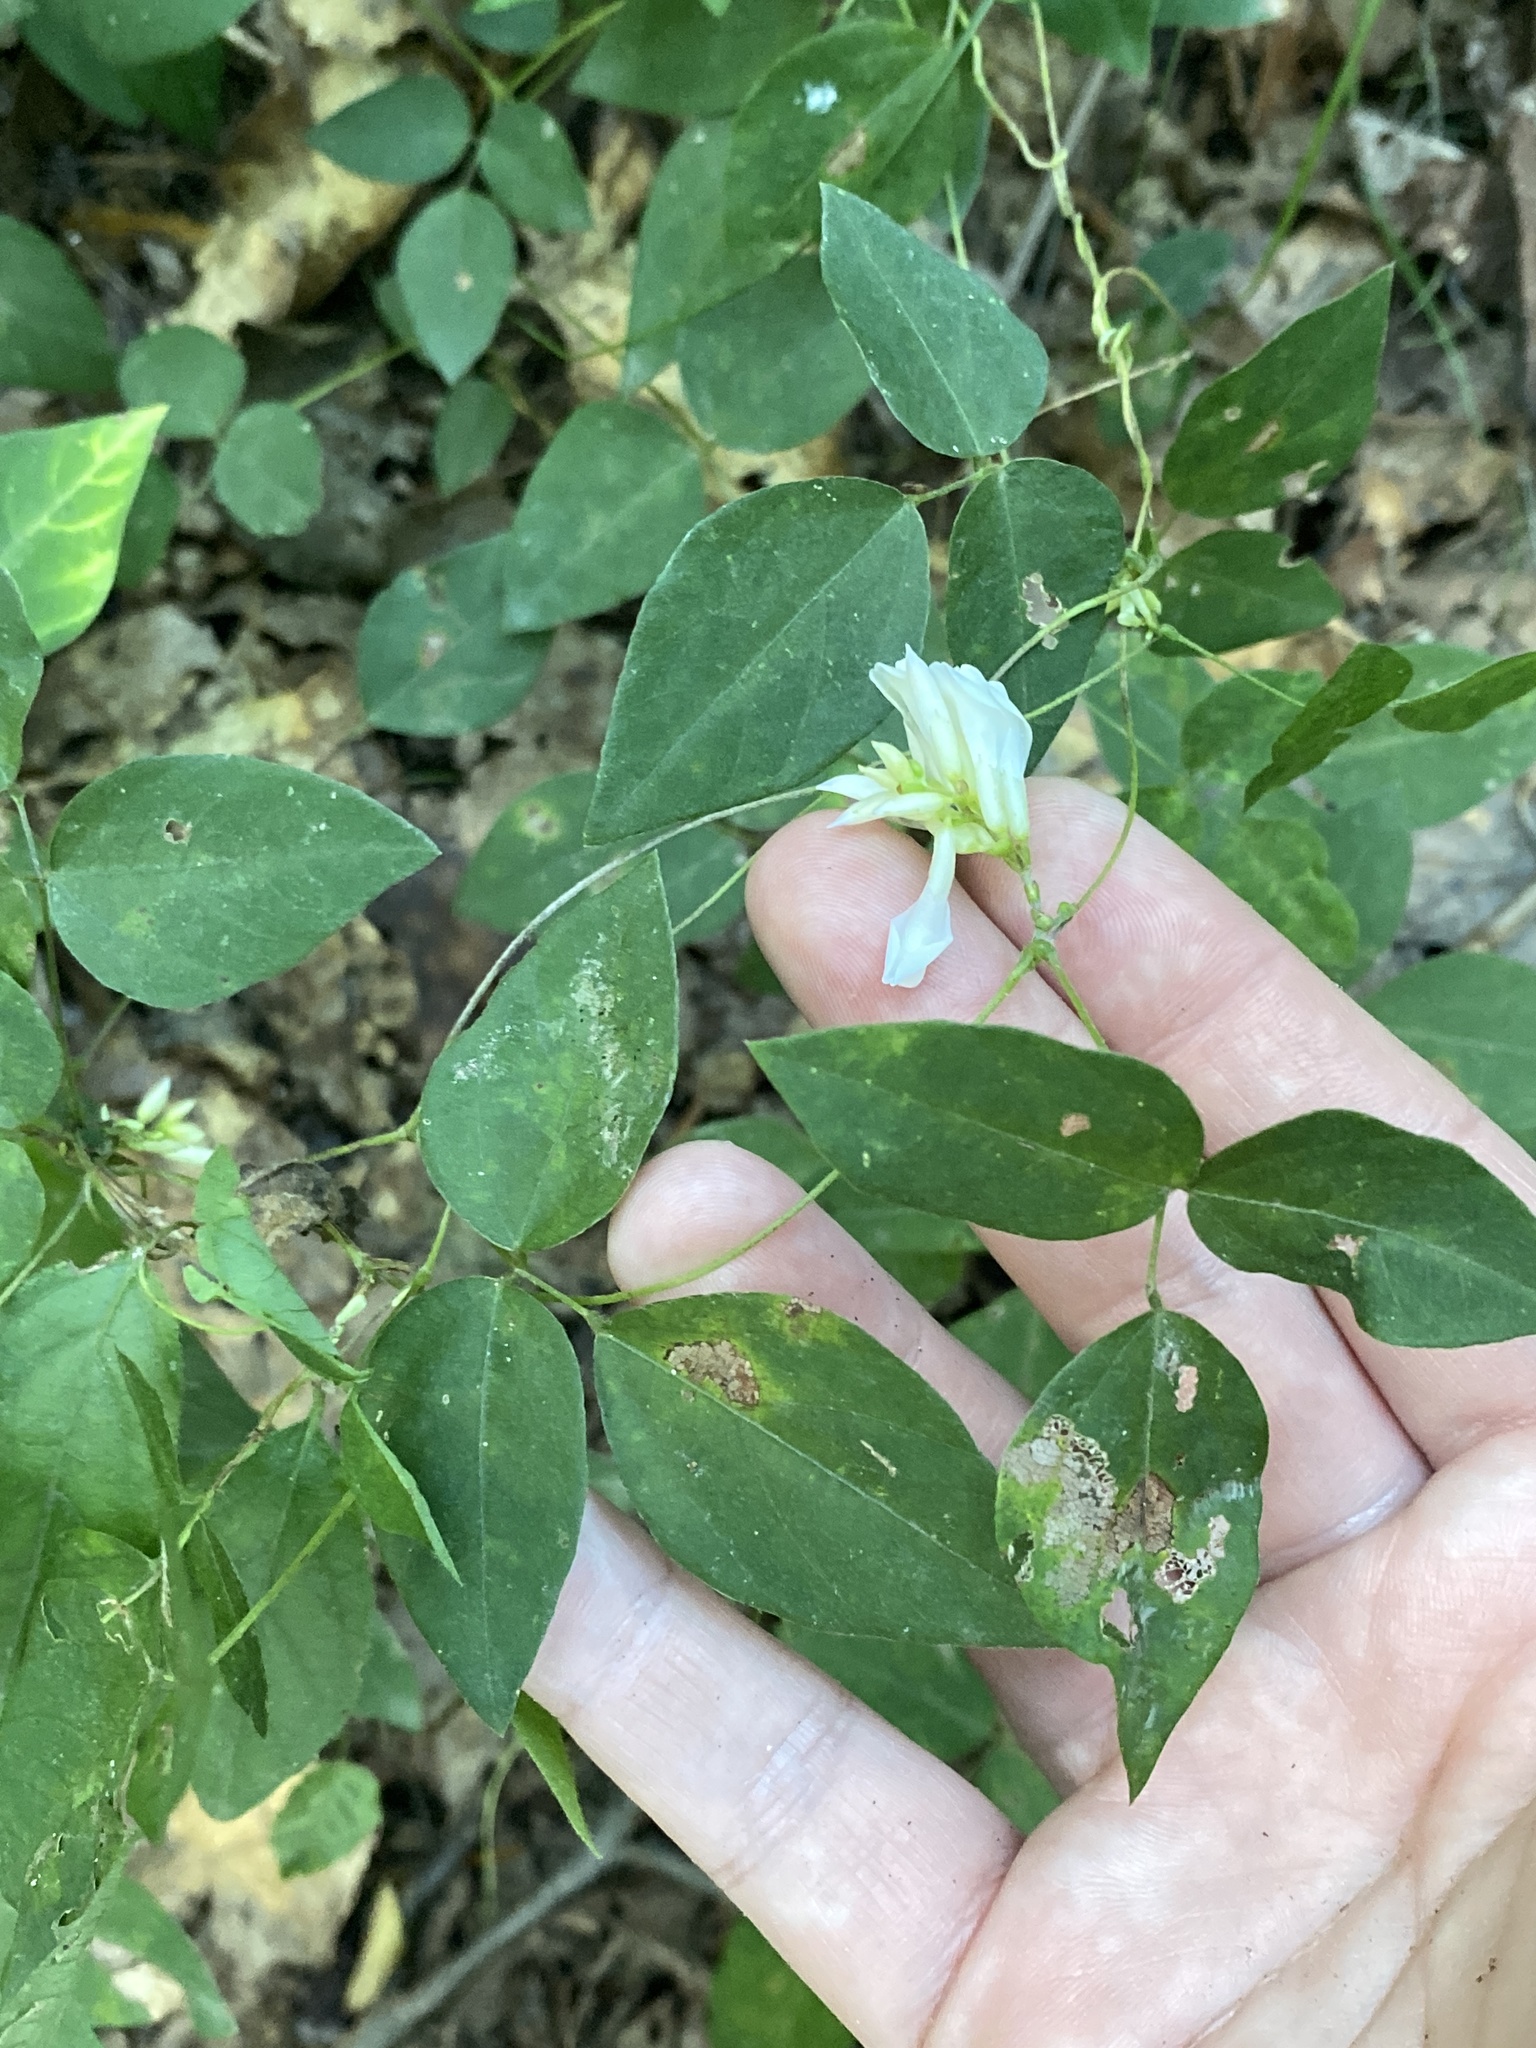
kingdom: Plantae
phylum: Tracheophyta
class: Magnoliopsida
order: Fabales
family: Fabaceae
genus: Amphicarpaea
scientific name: Amphicarpaea bracteata
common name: American hog peanut
